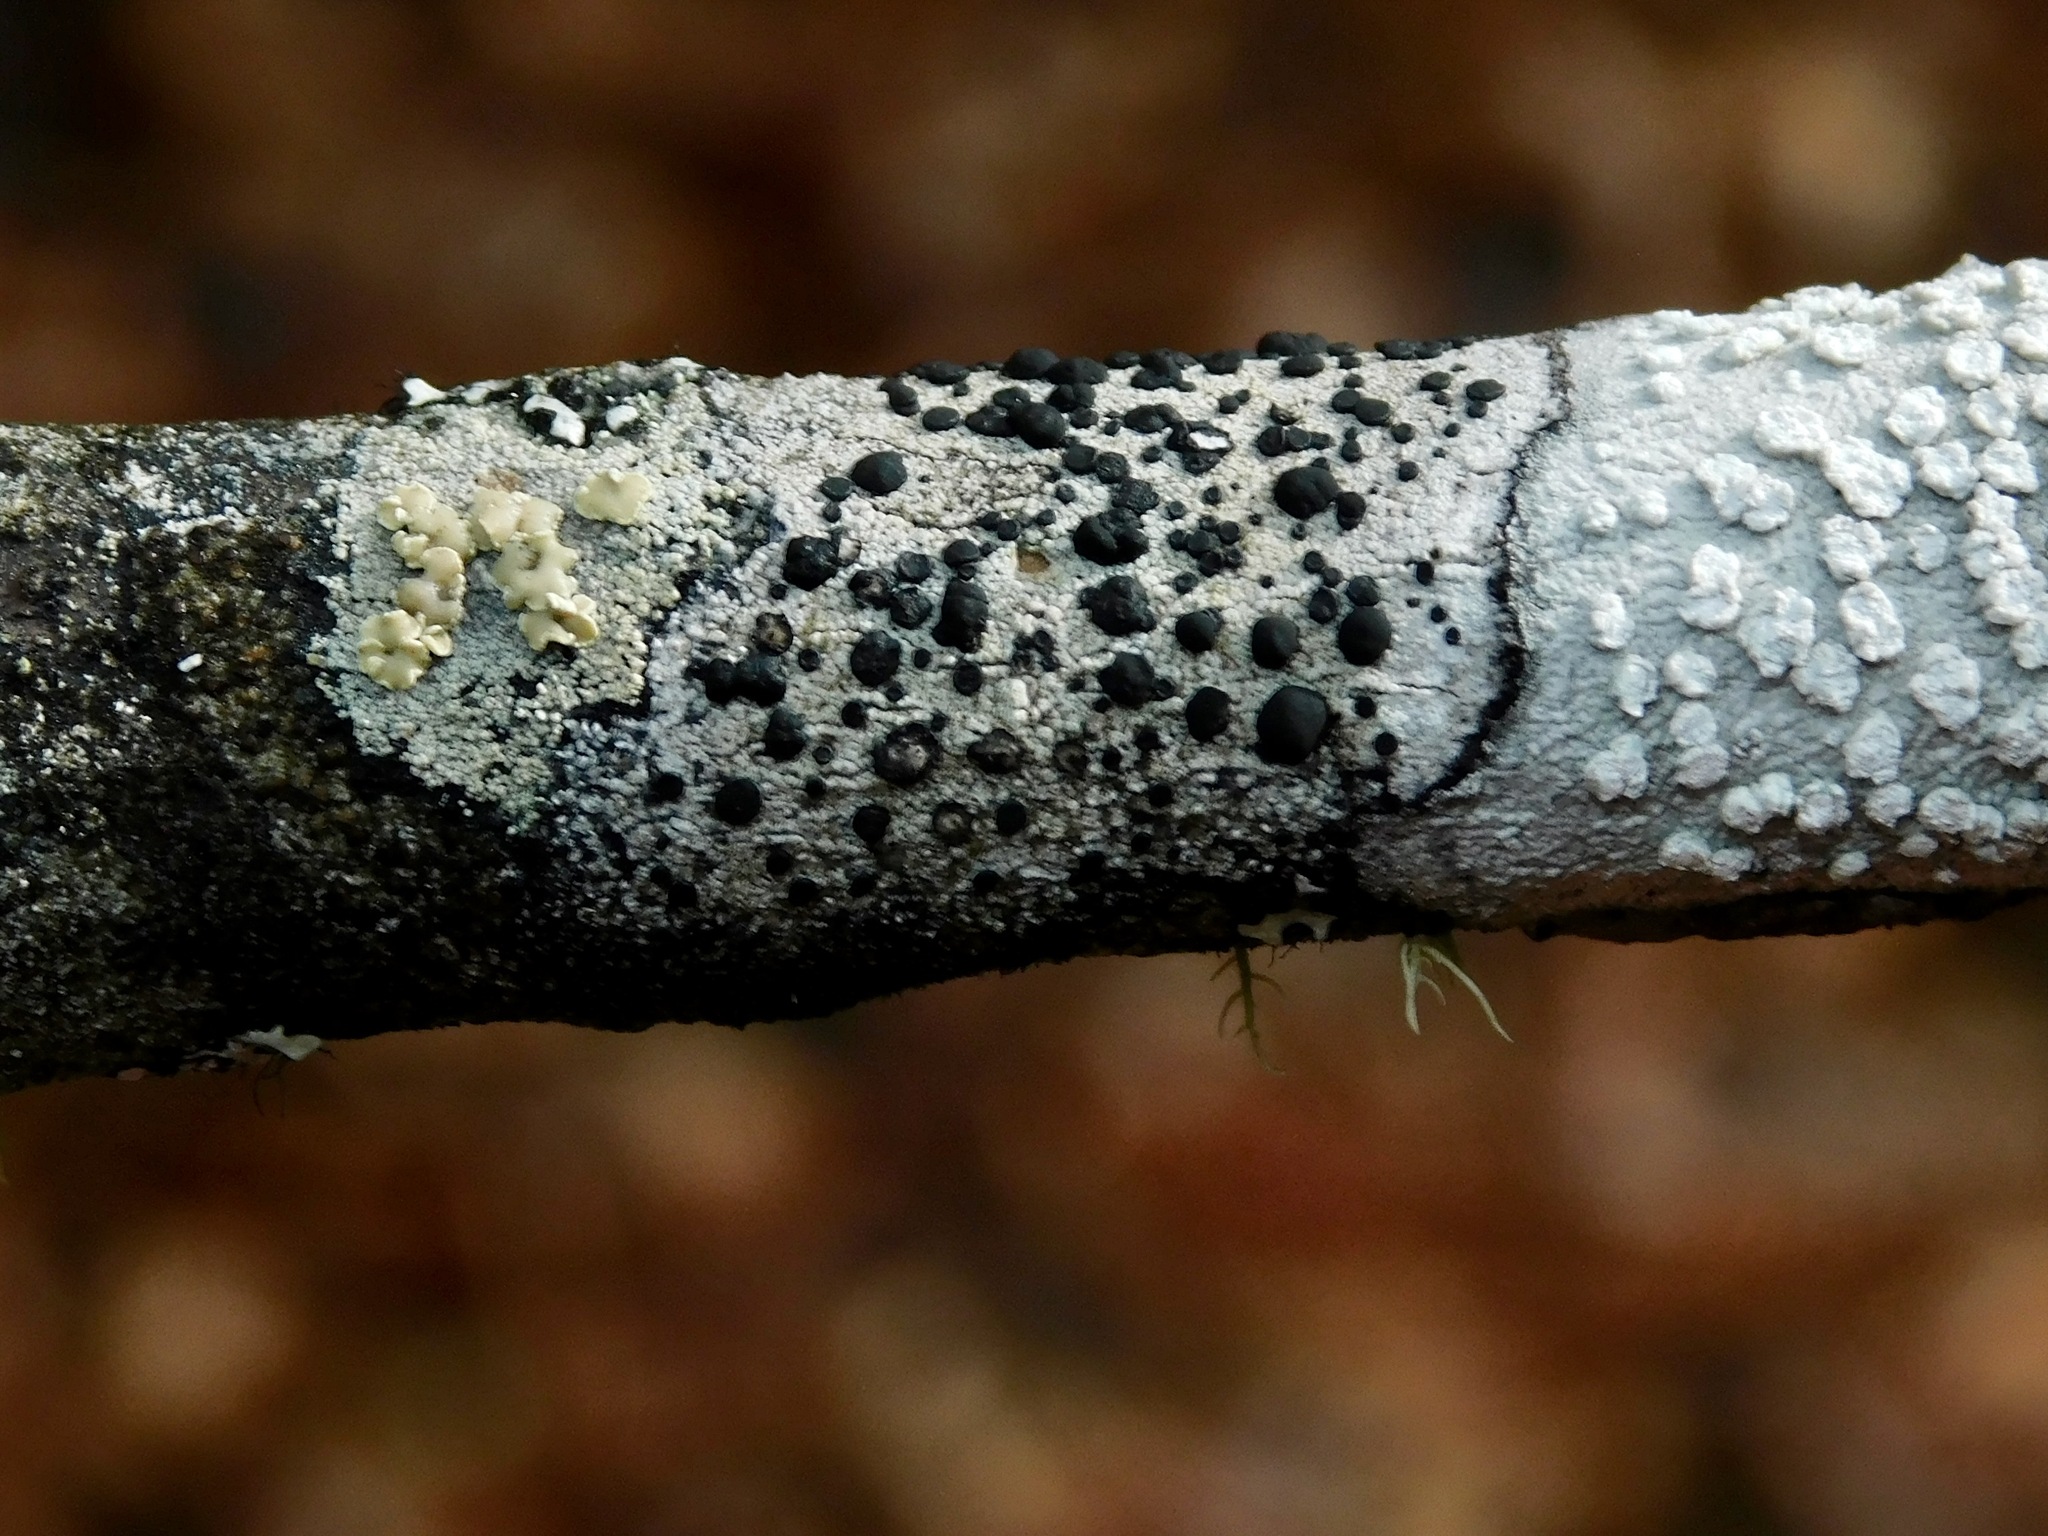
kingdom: Fungi
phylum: Ascomycota
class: Lecanoromycetes
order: Caliciales
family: Caliciaceae
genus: Buellia
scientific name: Buellia dialyta
